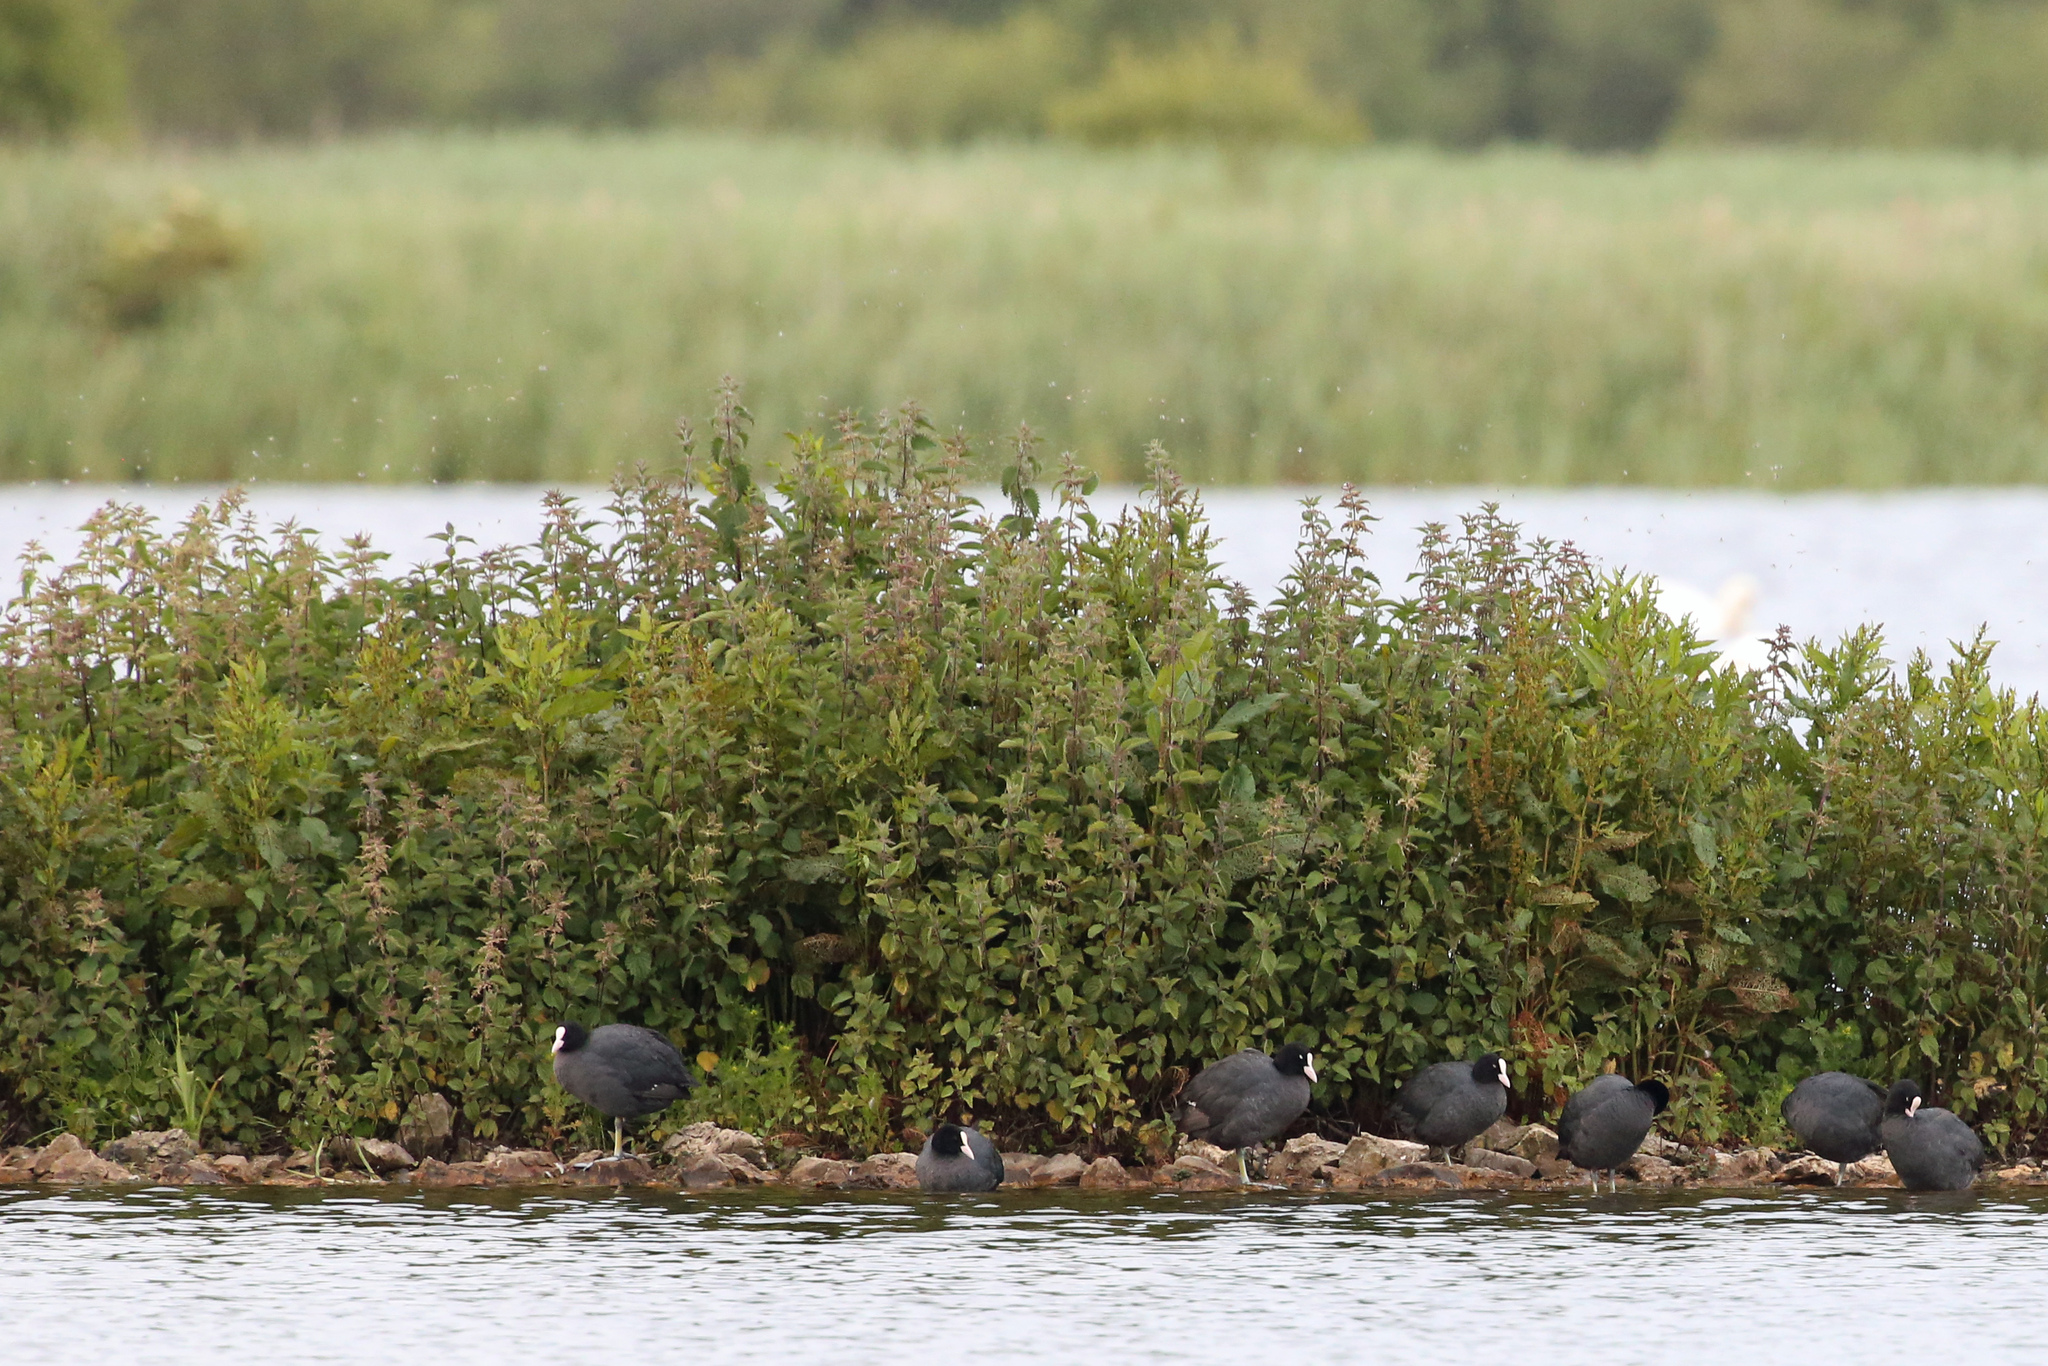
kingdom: Animalia
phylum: Chordata
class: Aves
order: Gruiformes
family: Rallidae
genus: Fulica
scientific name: Fulica atra
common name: Eurasian coot
